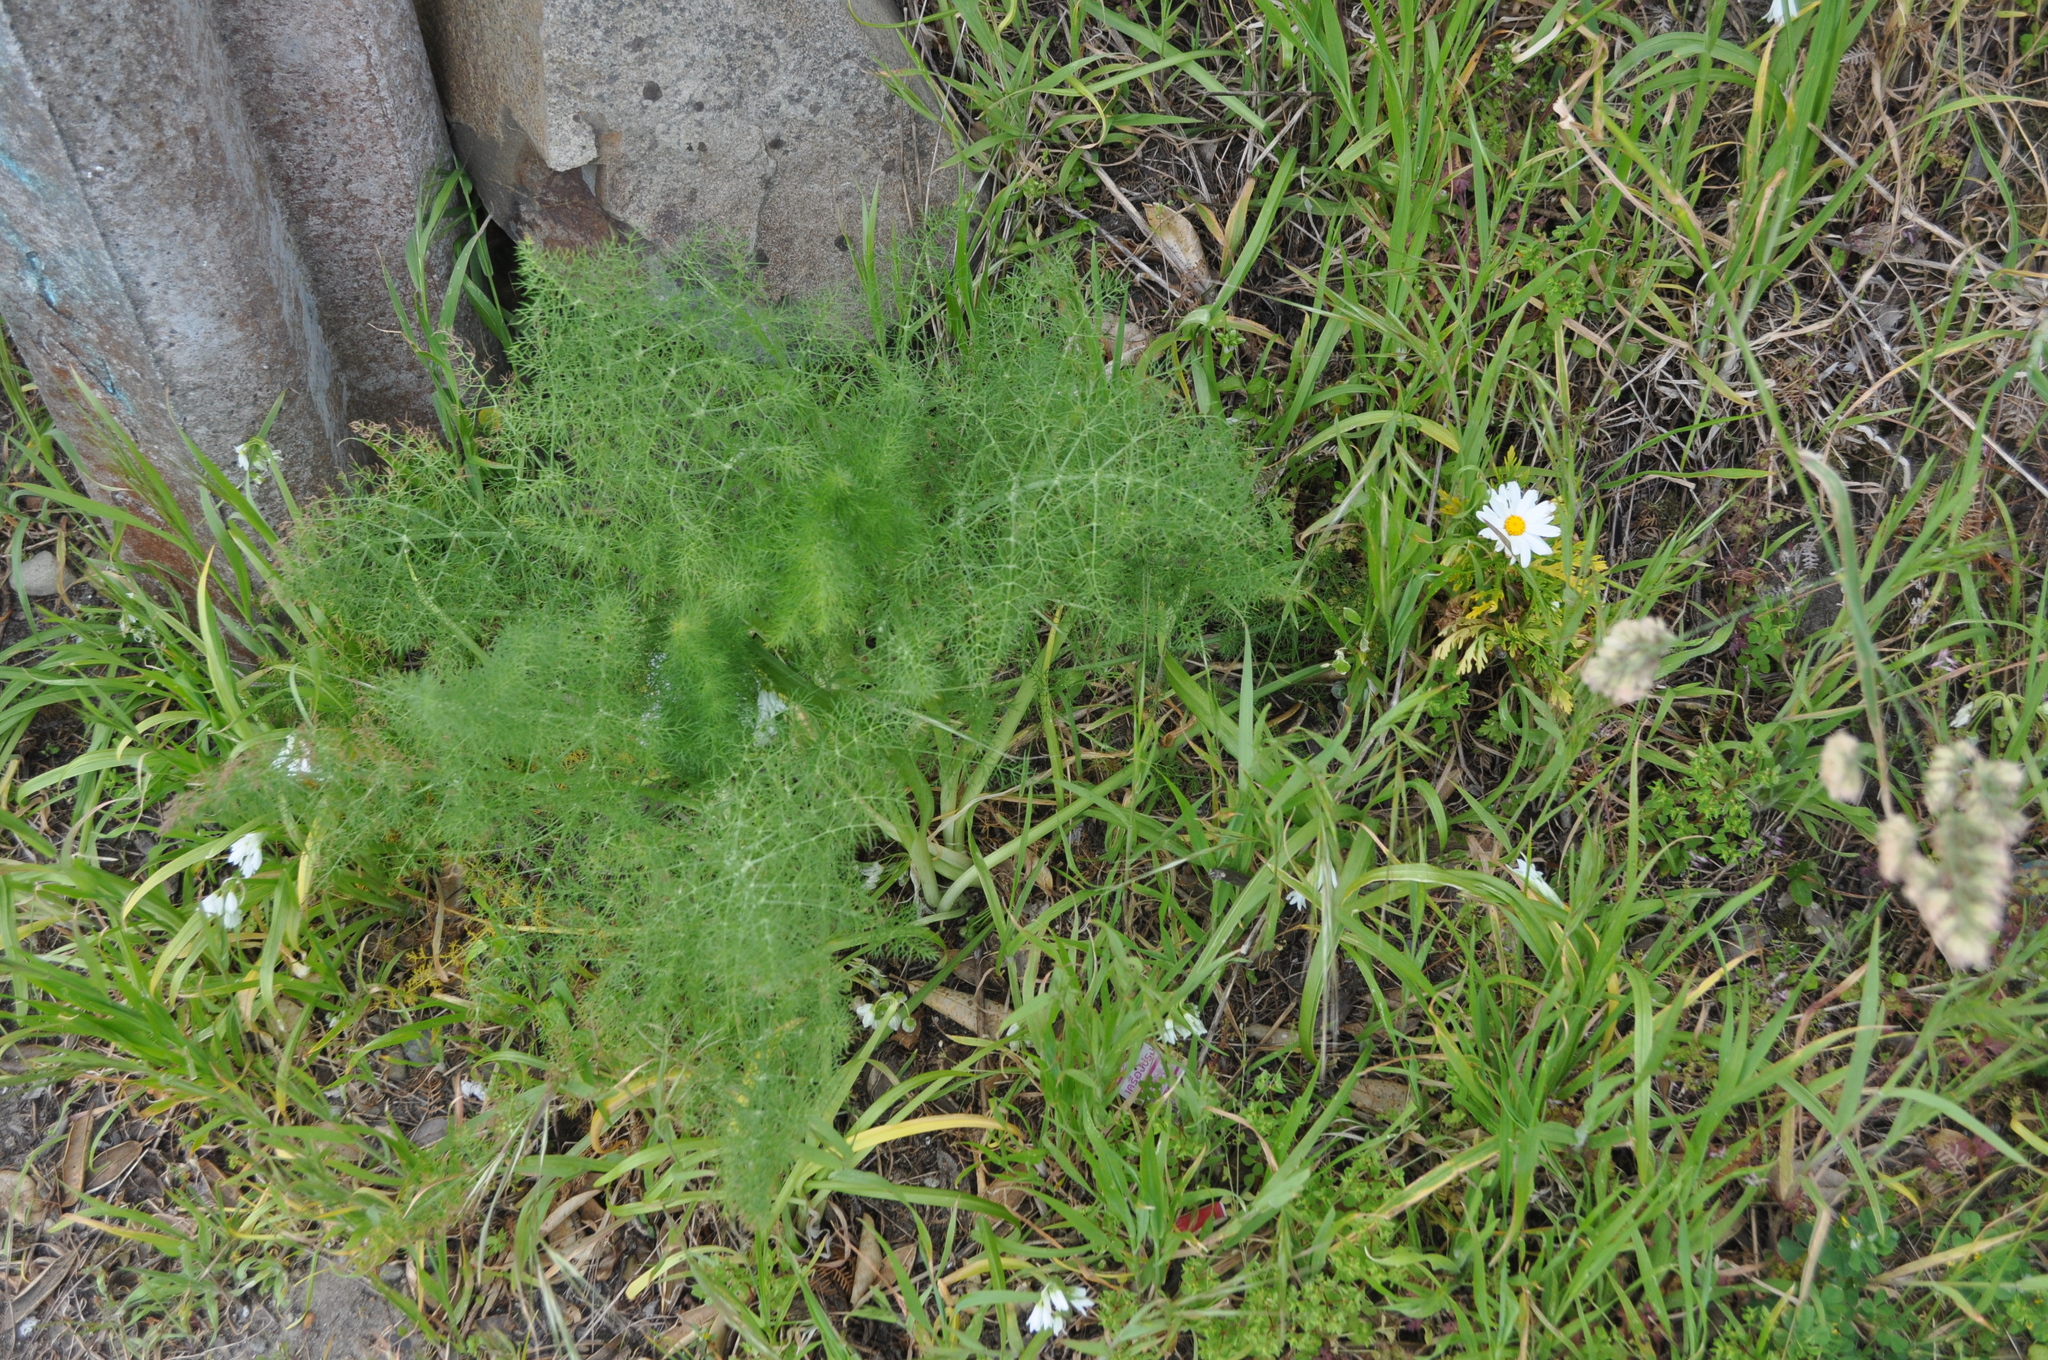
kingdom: Plantae
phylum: Tracheophyta
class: Magnoliopsida
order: Apiales
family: Apiaceae
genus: Foeniculum
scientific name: Foeniculum vulgare
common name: Fennel
